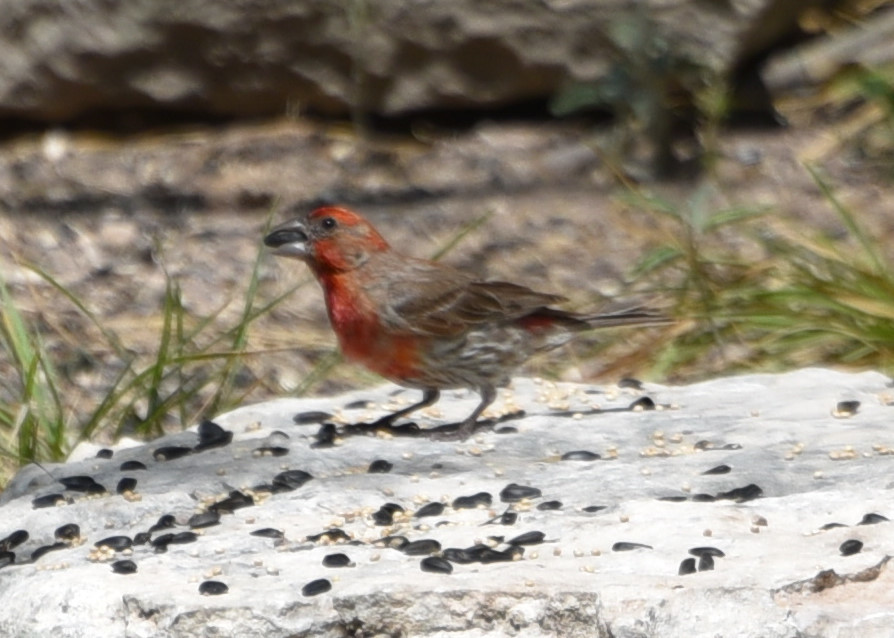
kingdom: Animalia
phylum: Chordata
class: Aves
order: Passeriformes
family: Fringillidae
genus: Haemorhous
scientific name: Haemorhous mexicanus
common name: House finch
